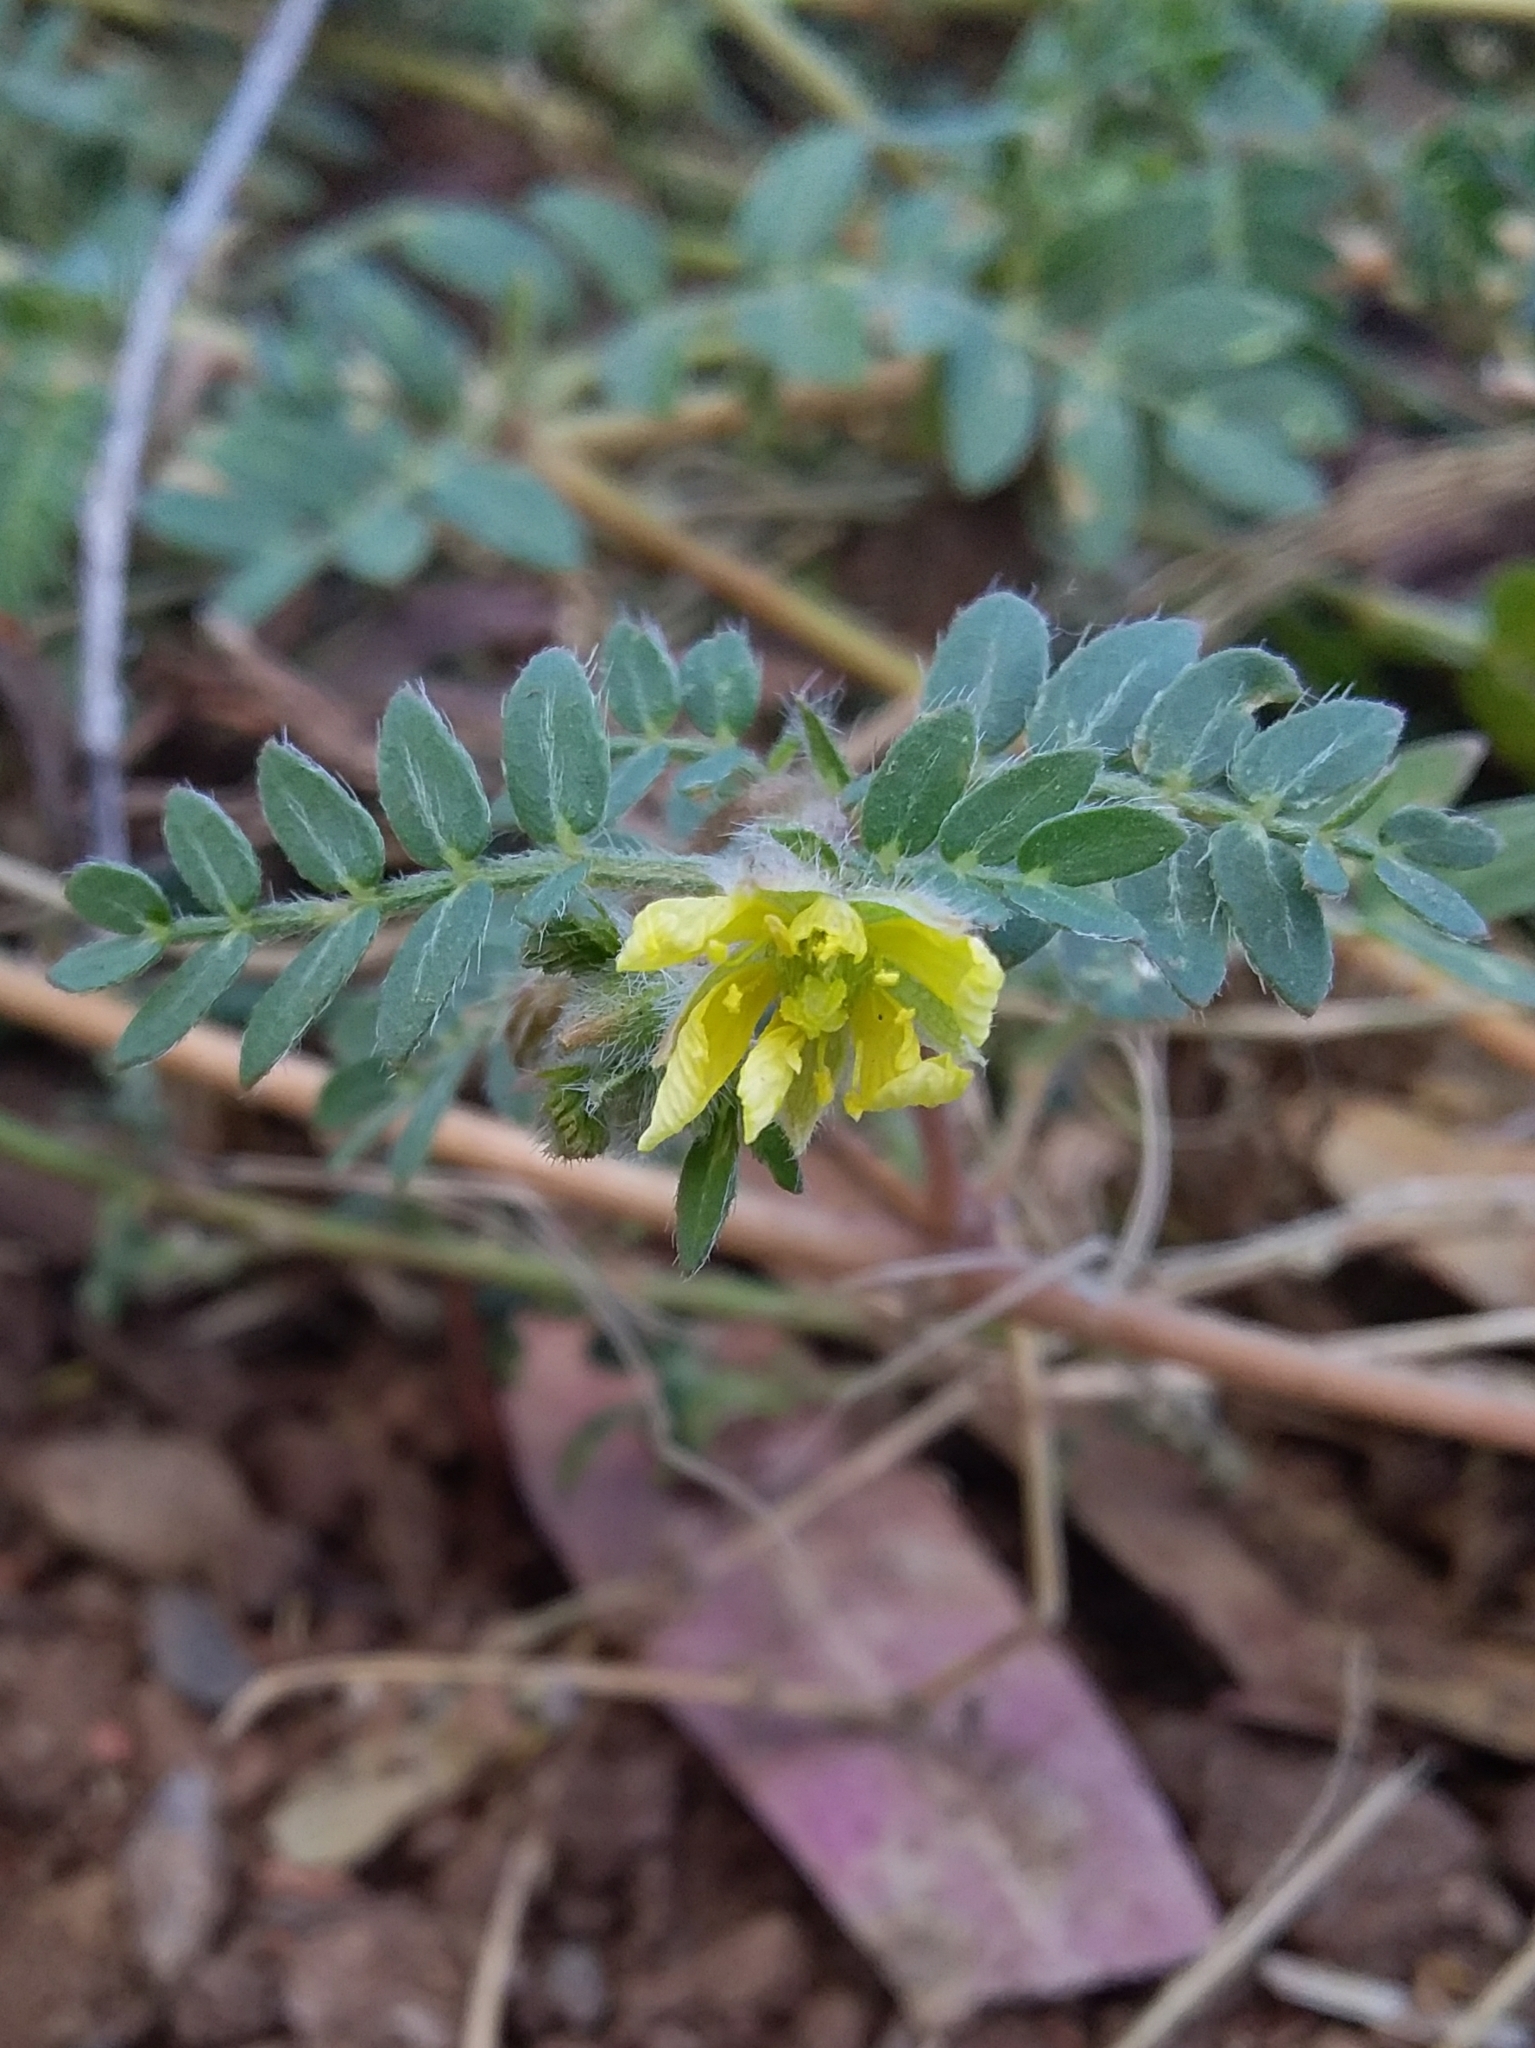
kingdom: Plantae
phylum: Tracheophyta
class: Magnoliopsida
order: Zygophyllales
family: Zygophyllaceae
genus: Tribulus
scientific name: Tribulus terrestris
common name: Puncturevine
